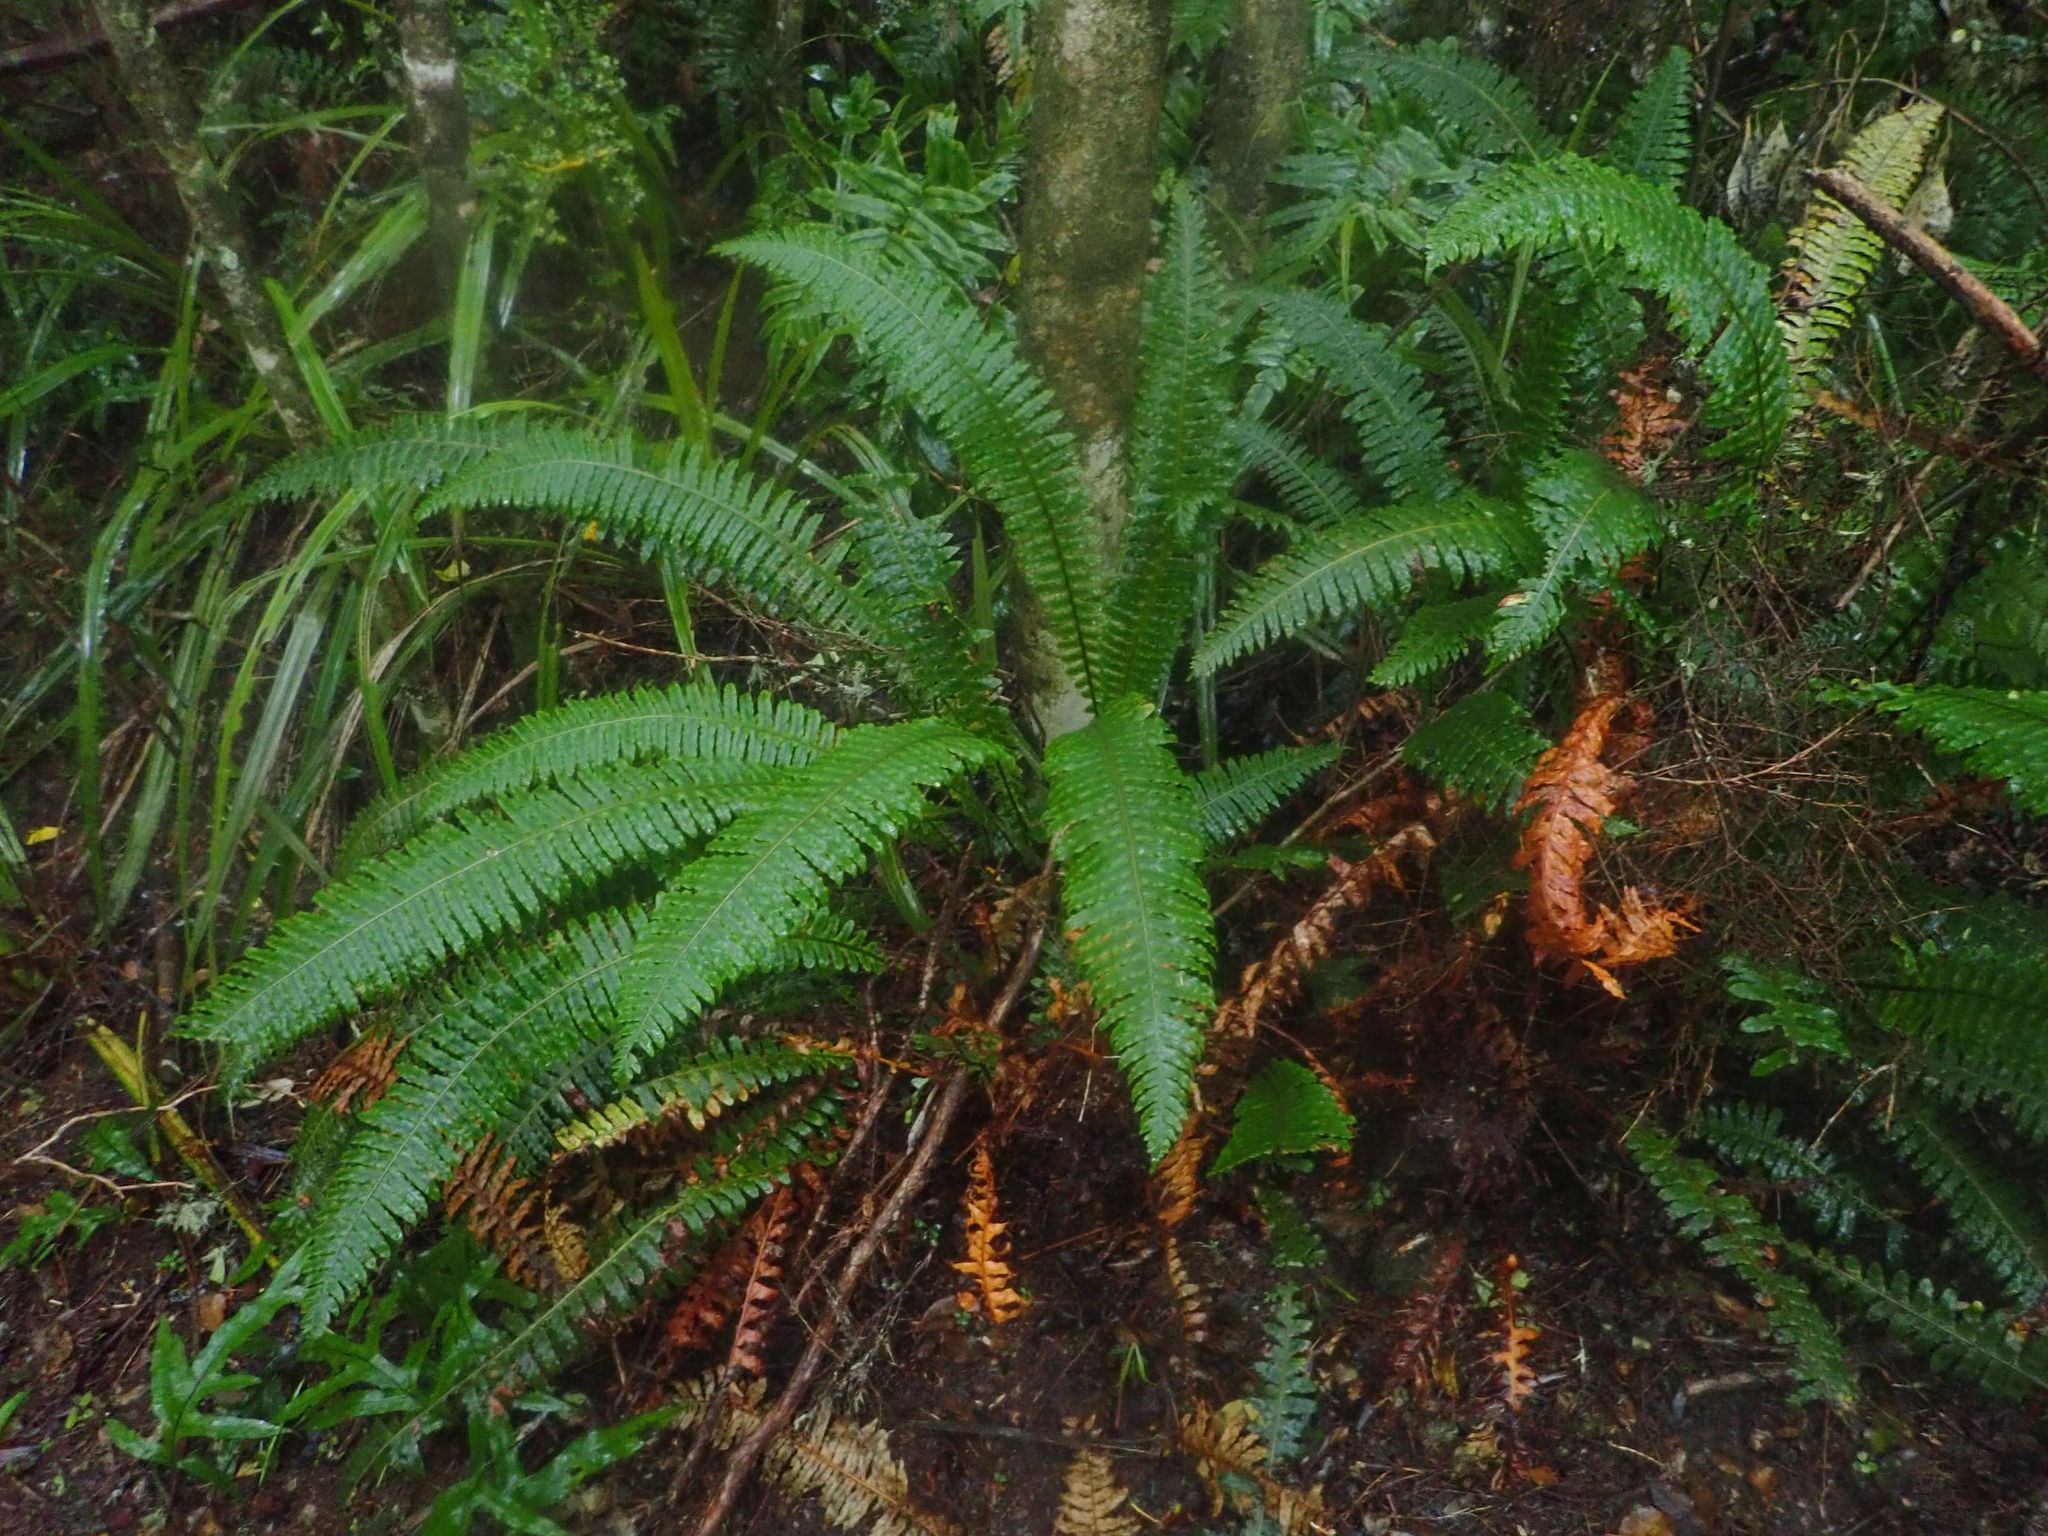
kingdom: Plantae
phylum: Tracheophyta
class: Polypodiopsida
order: Polypodiales
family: Blechnaceae
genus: Lomaria
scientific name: Lomaria discolor
